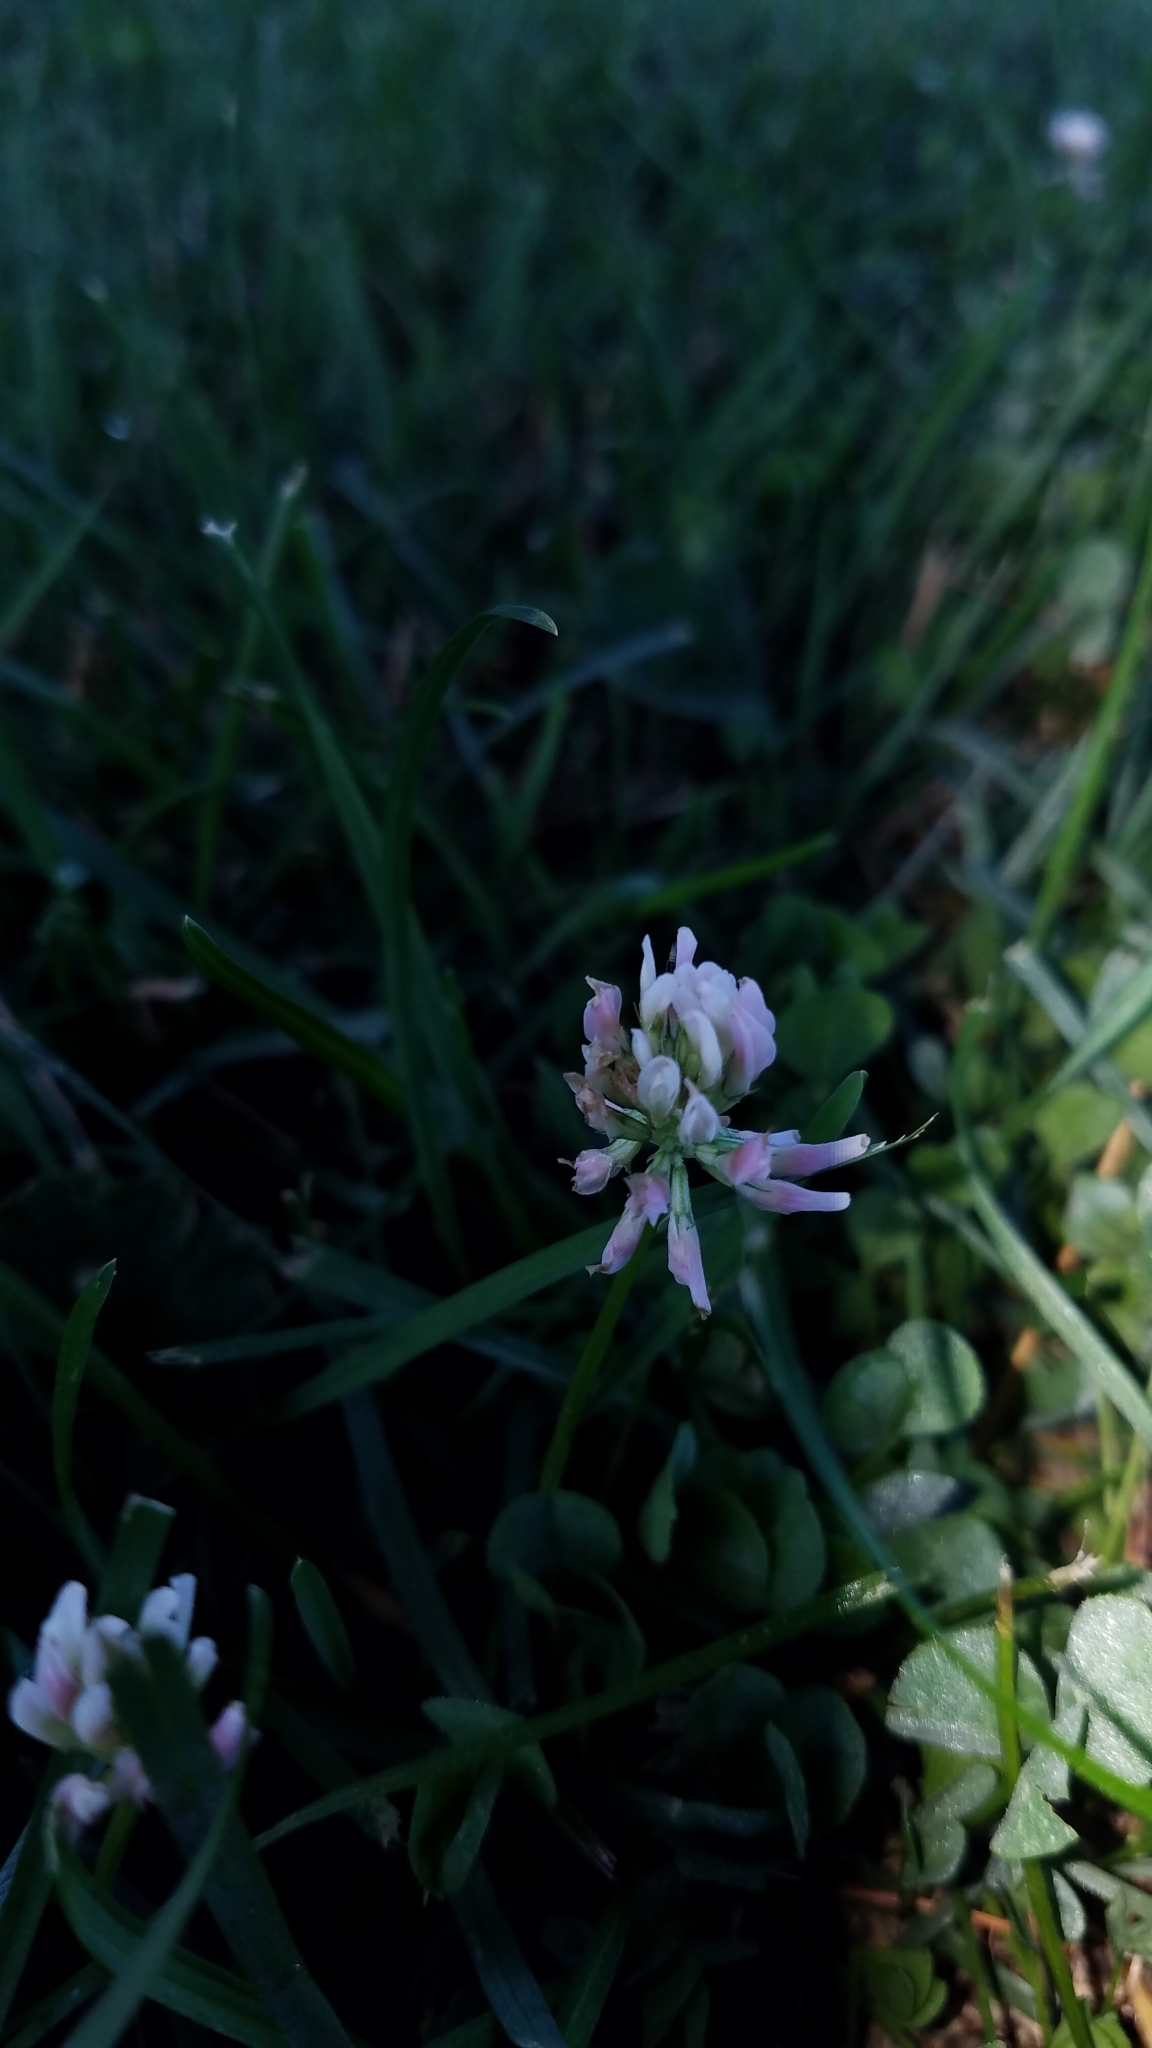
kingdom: Plantae
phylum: Tracheophyta
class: Magnoliopsida
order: Fabales
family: Fabaceae
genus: Trifolium
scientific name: Trifolium repens
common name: White clover
